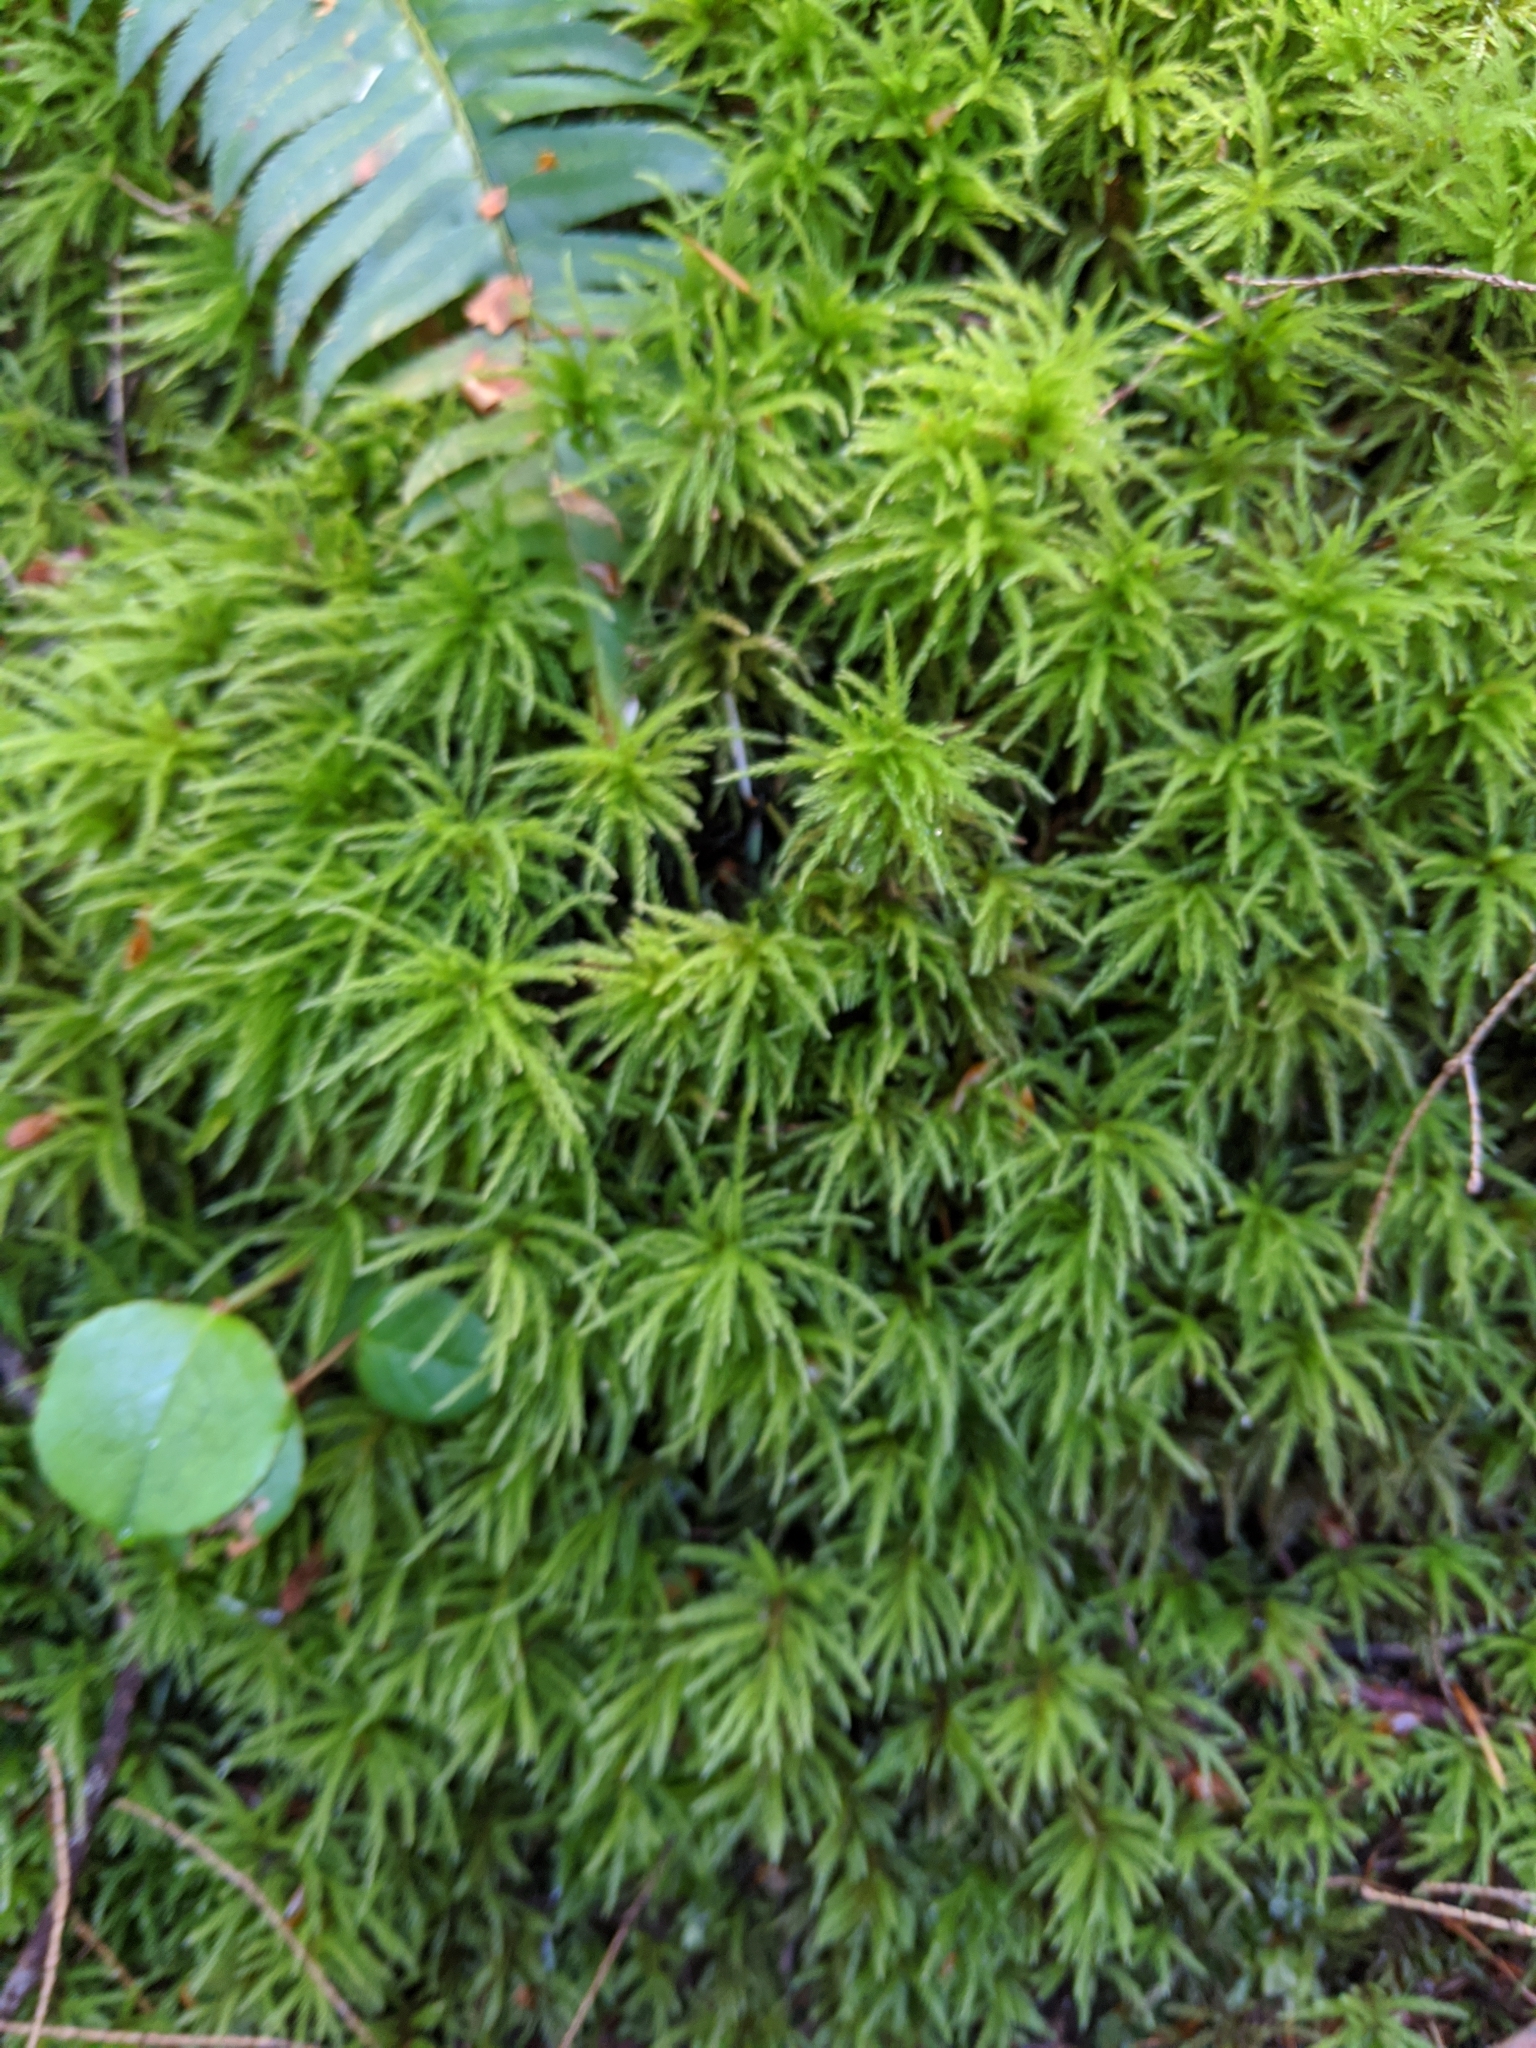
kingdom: Plantae
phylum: Bryophyta
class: Bryopsida
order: Bryales
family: Mniaceae
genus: Leucolepis
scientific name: Leucolepis acanthoneura
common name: Leucolepis umbrella moss
